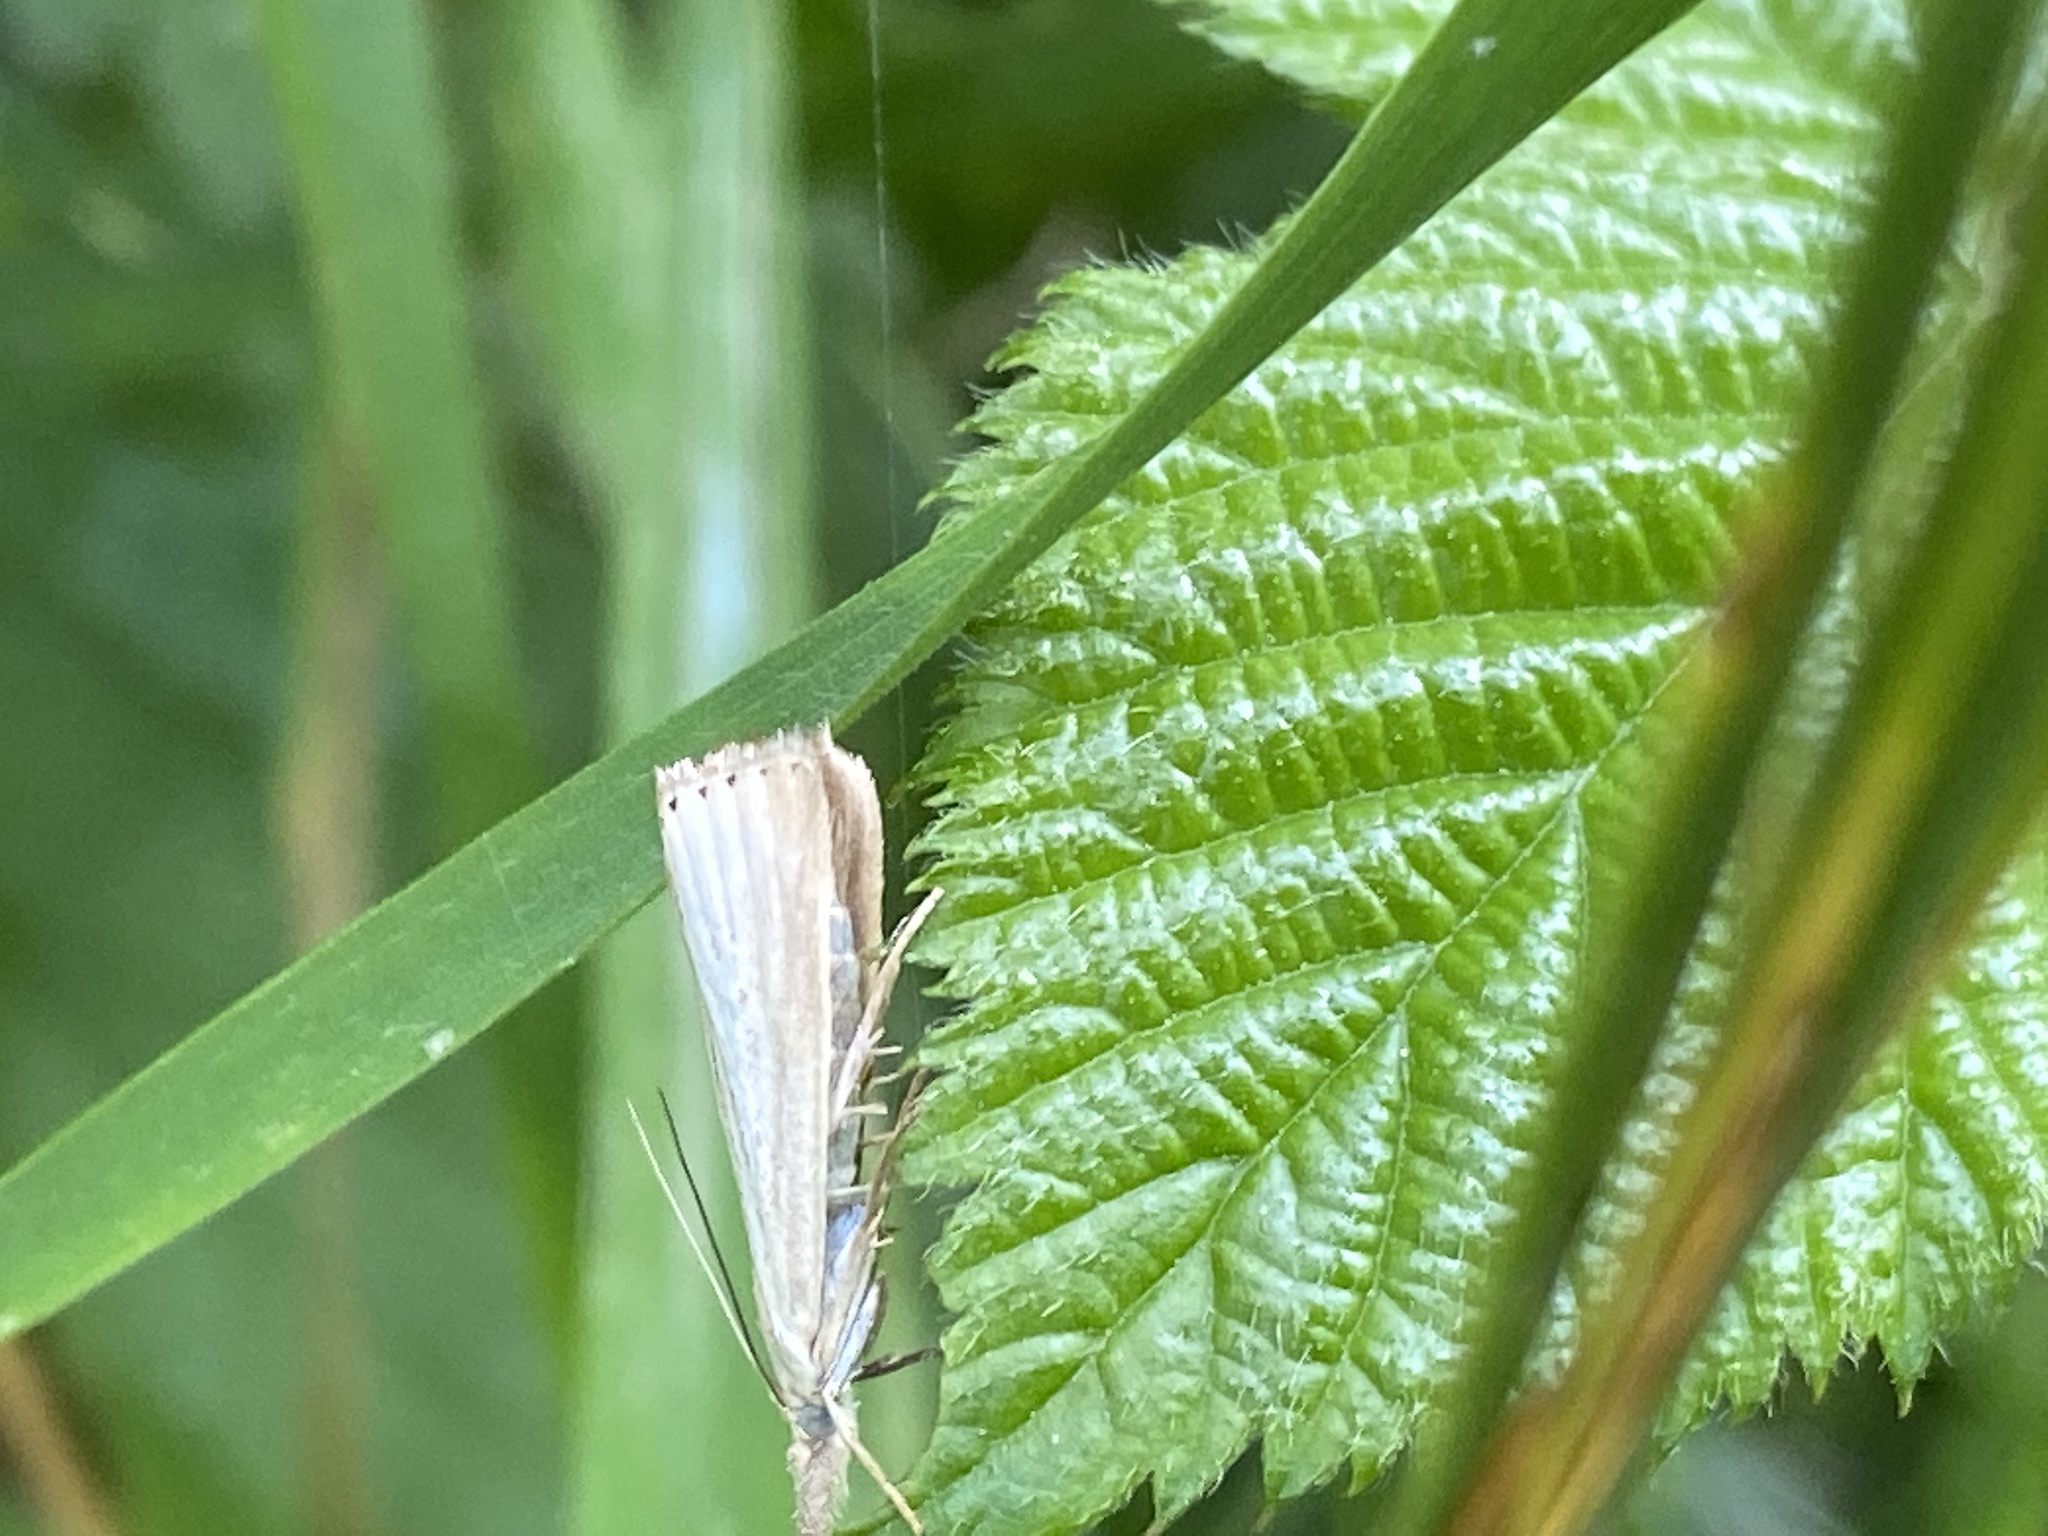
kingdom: Animalia
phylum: Arthropoda
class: Insecta
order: Lepidoptera
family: Crambidae
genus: Agriphila
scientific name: Agriphila straminella
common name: Straw grass-veneer
